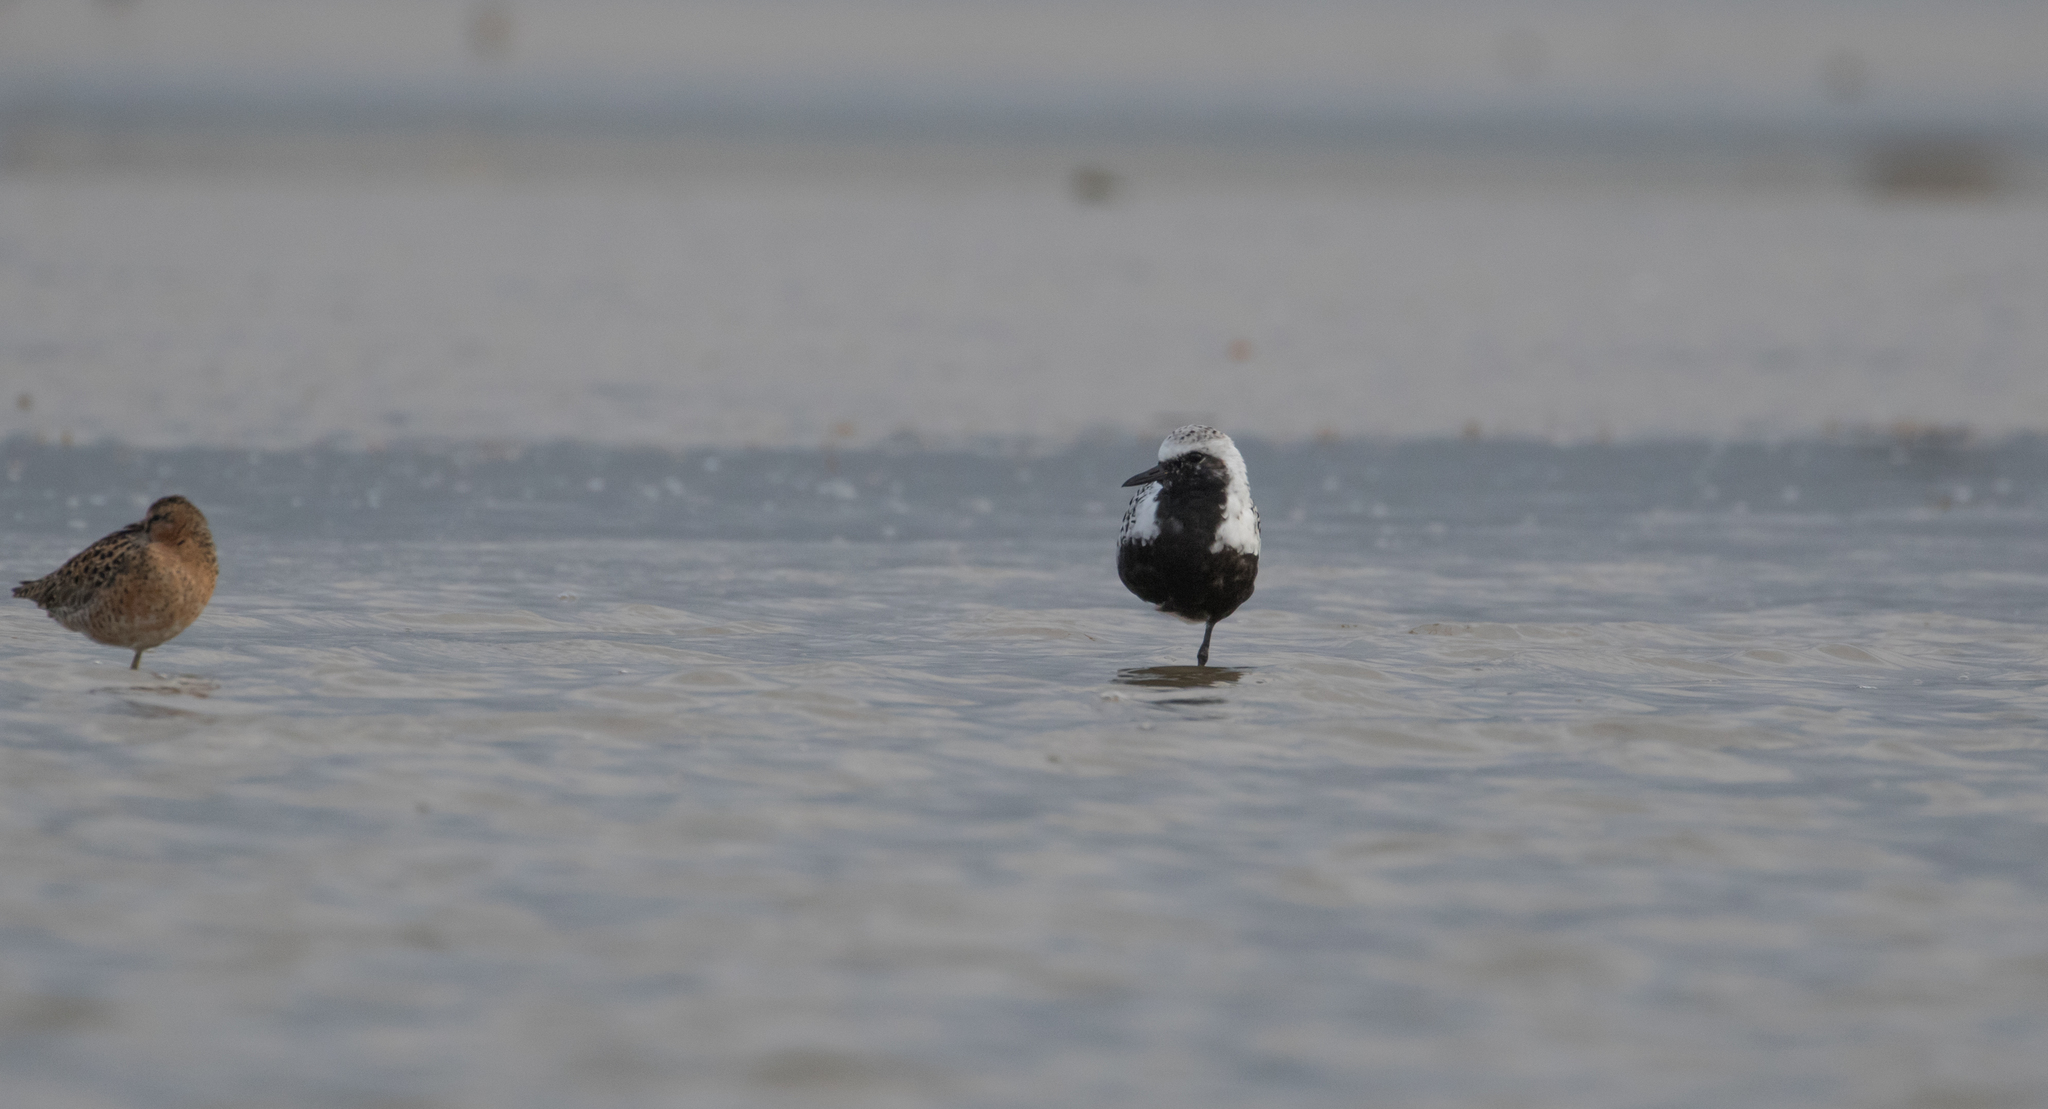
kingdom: Animalia
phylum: Chordata
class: Aves
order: Charadriiformes
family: Charadriidae
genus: Pluvialis
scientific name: Pluvialis squatarola
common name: Grey plover
